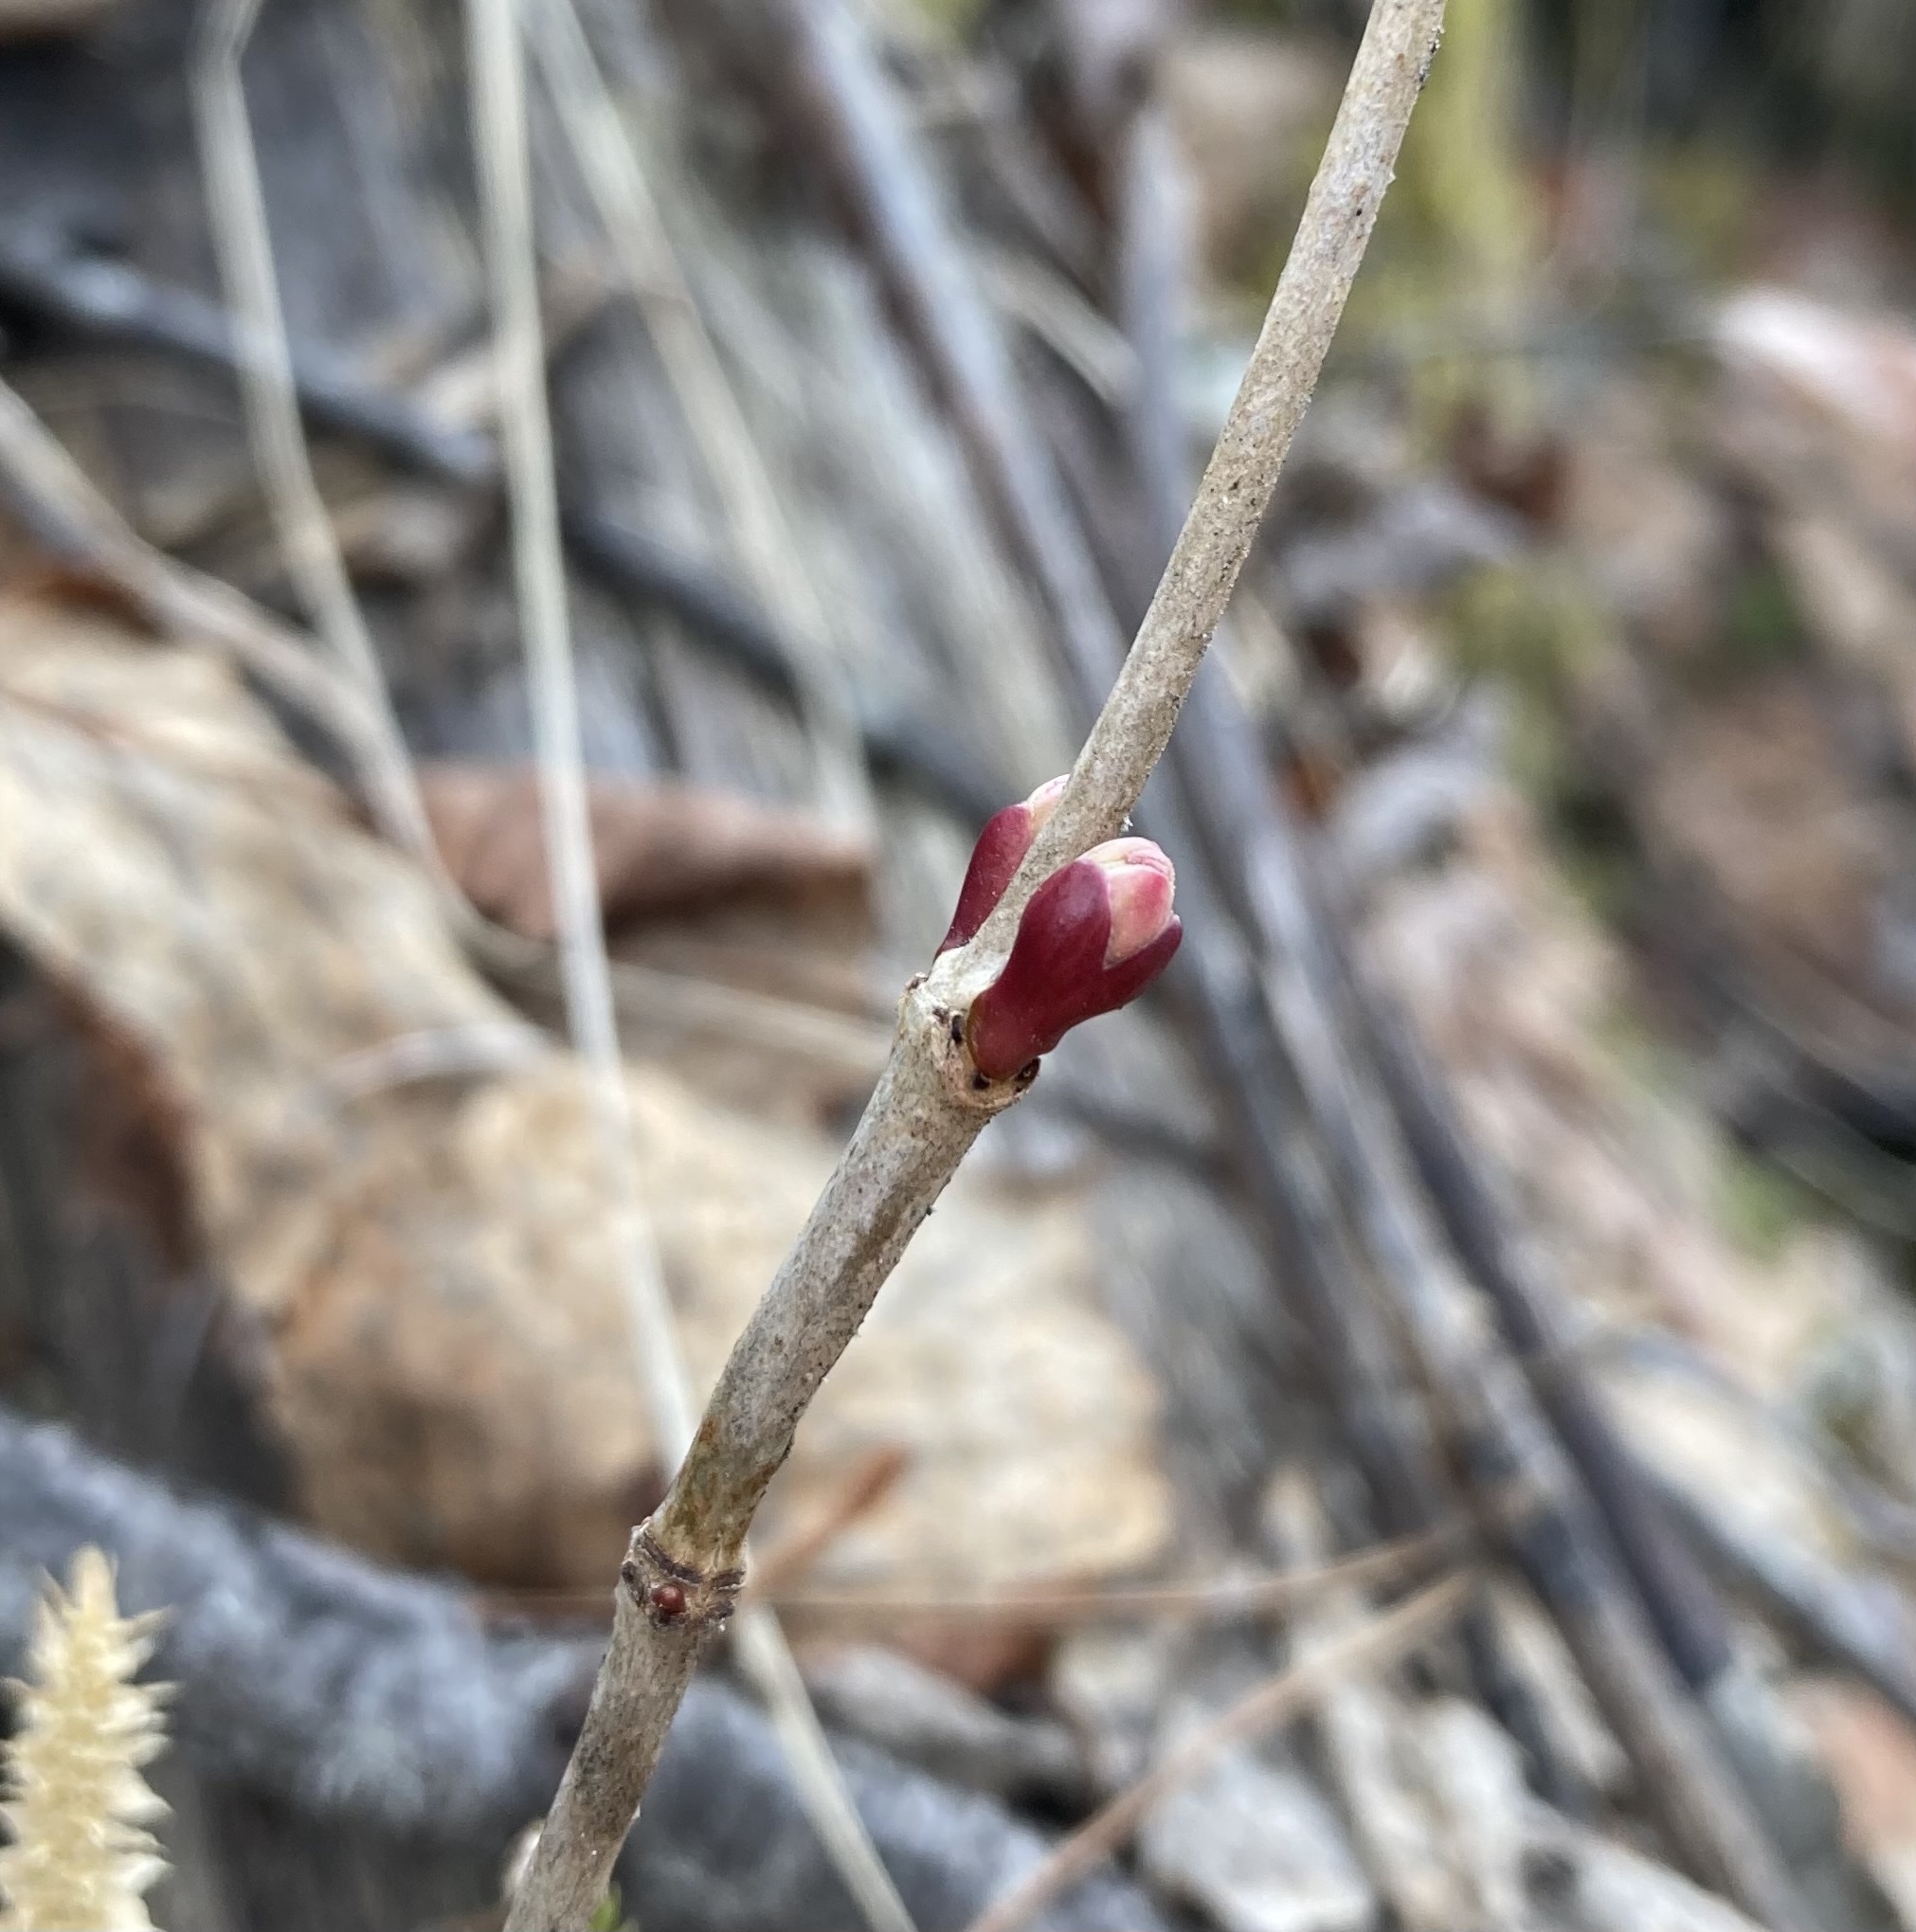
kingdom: Plantae
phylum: Tracheophyta
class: Magnoliopsida
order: Dipsacales
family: Viburnaceae
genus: Viburnum
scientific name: Viburnum edule
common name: Mooseberry
